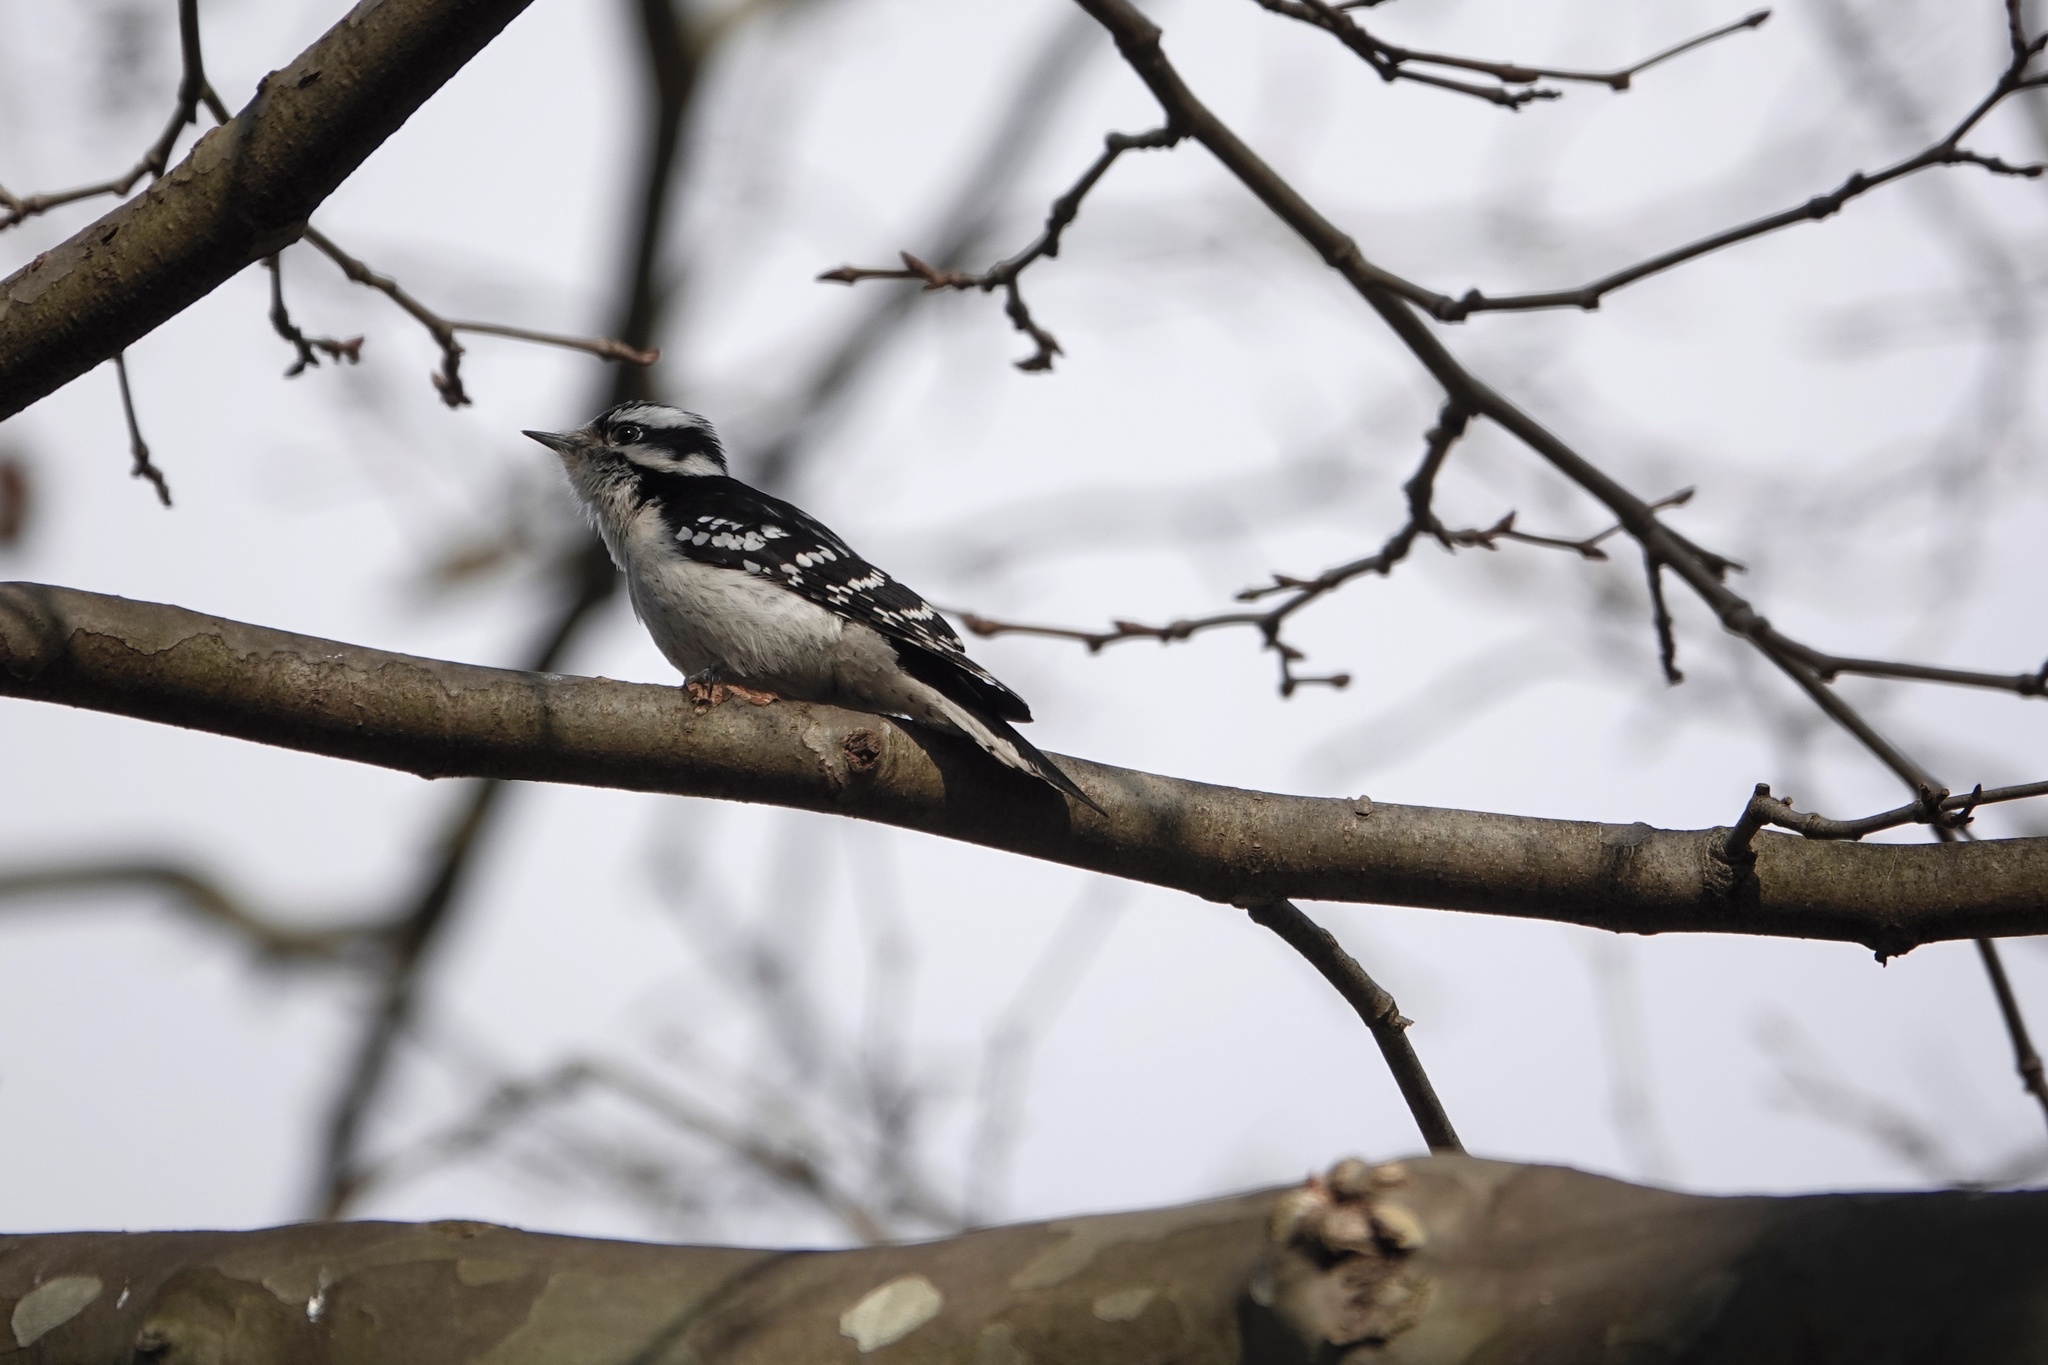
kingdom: Animalia
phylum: Chordata
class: Aves
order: Piciformes
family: Picidae
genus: Dryobates
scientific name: Dryobates pubescens
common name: Downy woodpecker
